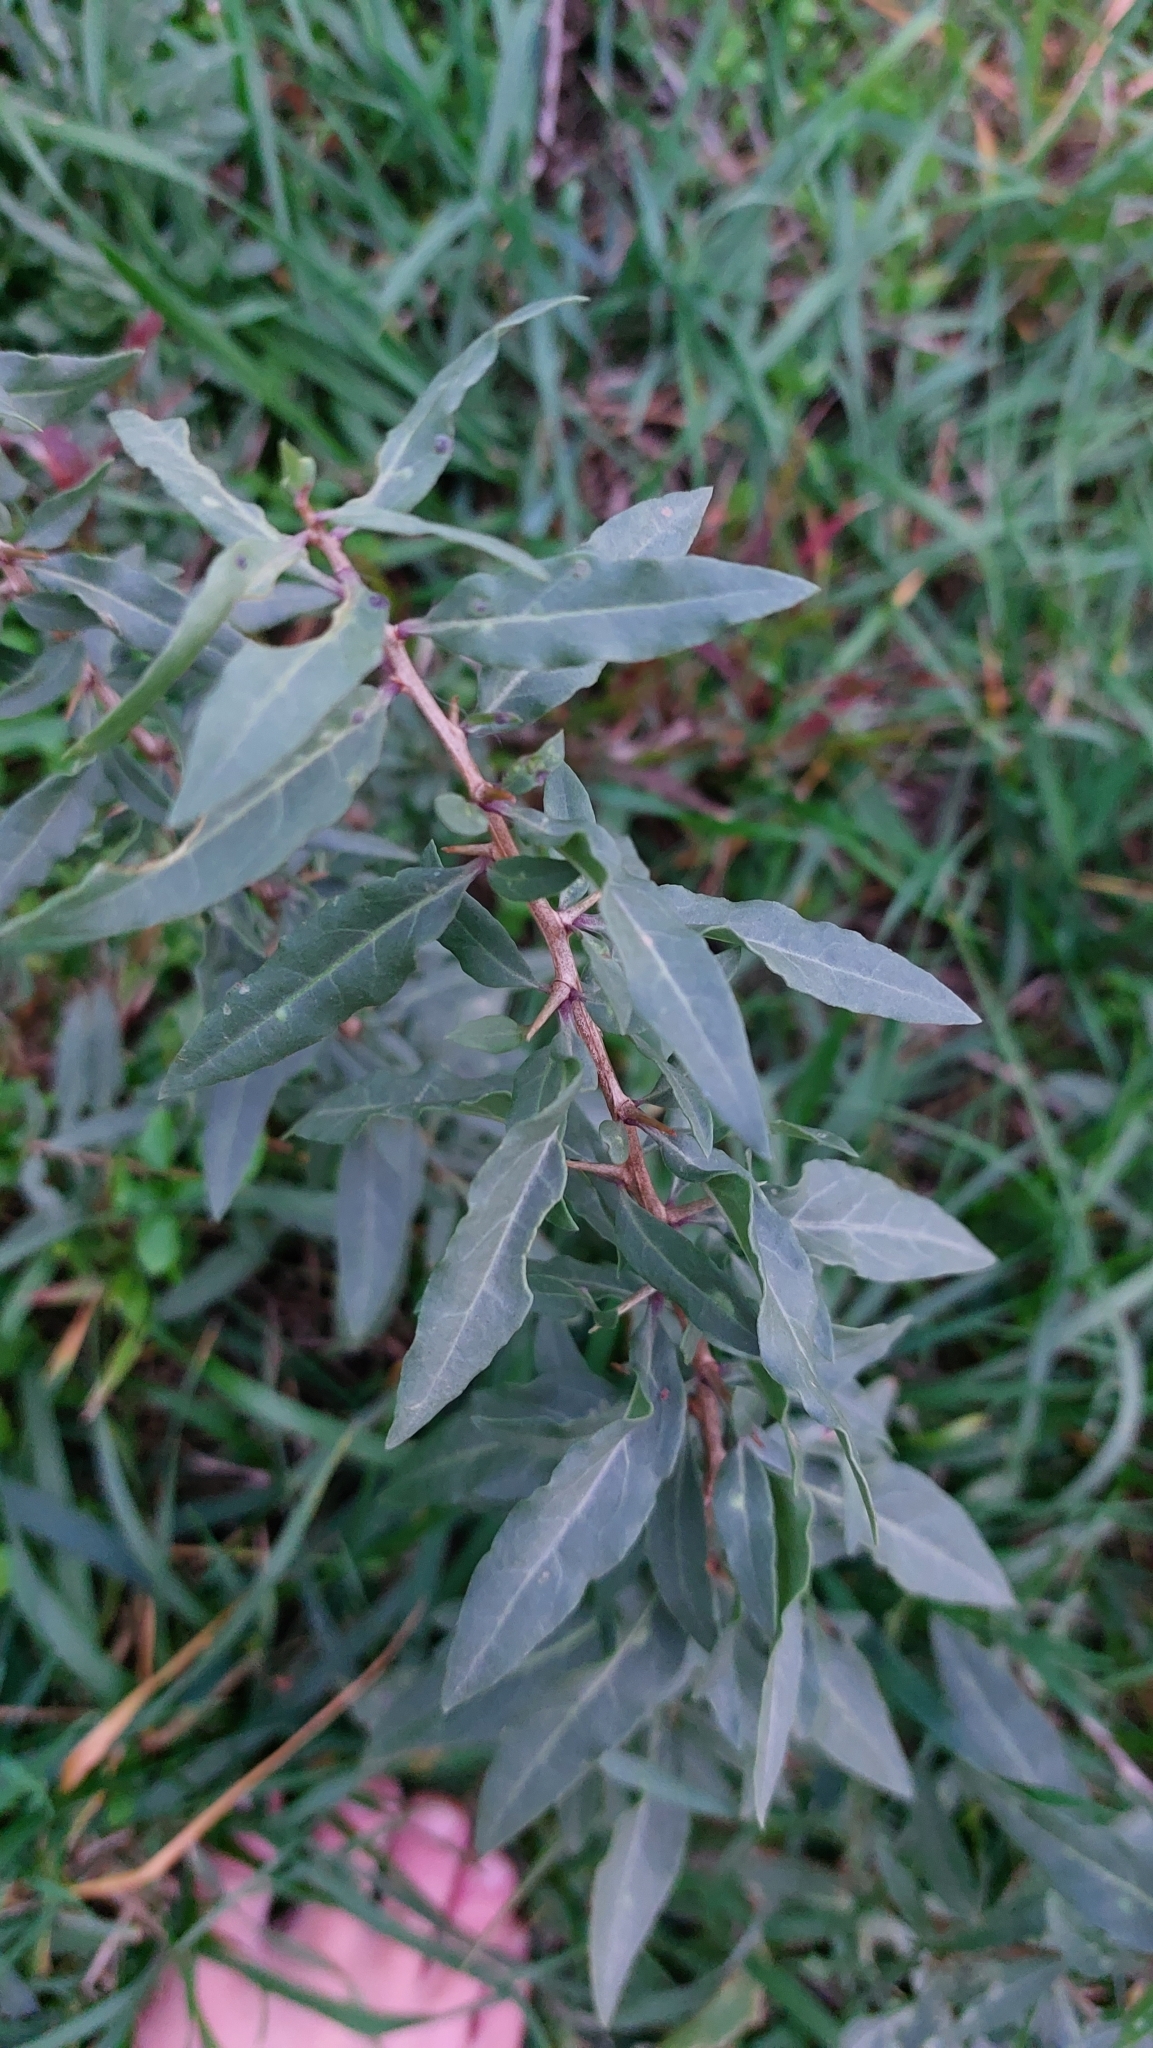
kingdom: Plantae
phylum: Tracheophyta
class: Magnoliopsida
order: Solanales
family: Solanaceae
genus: Lycium
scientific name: Lycium barbarum
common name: Duke of argyll's teaplant
